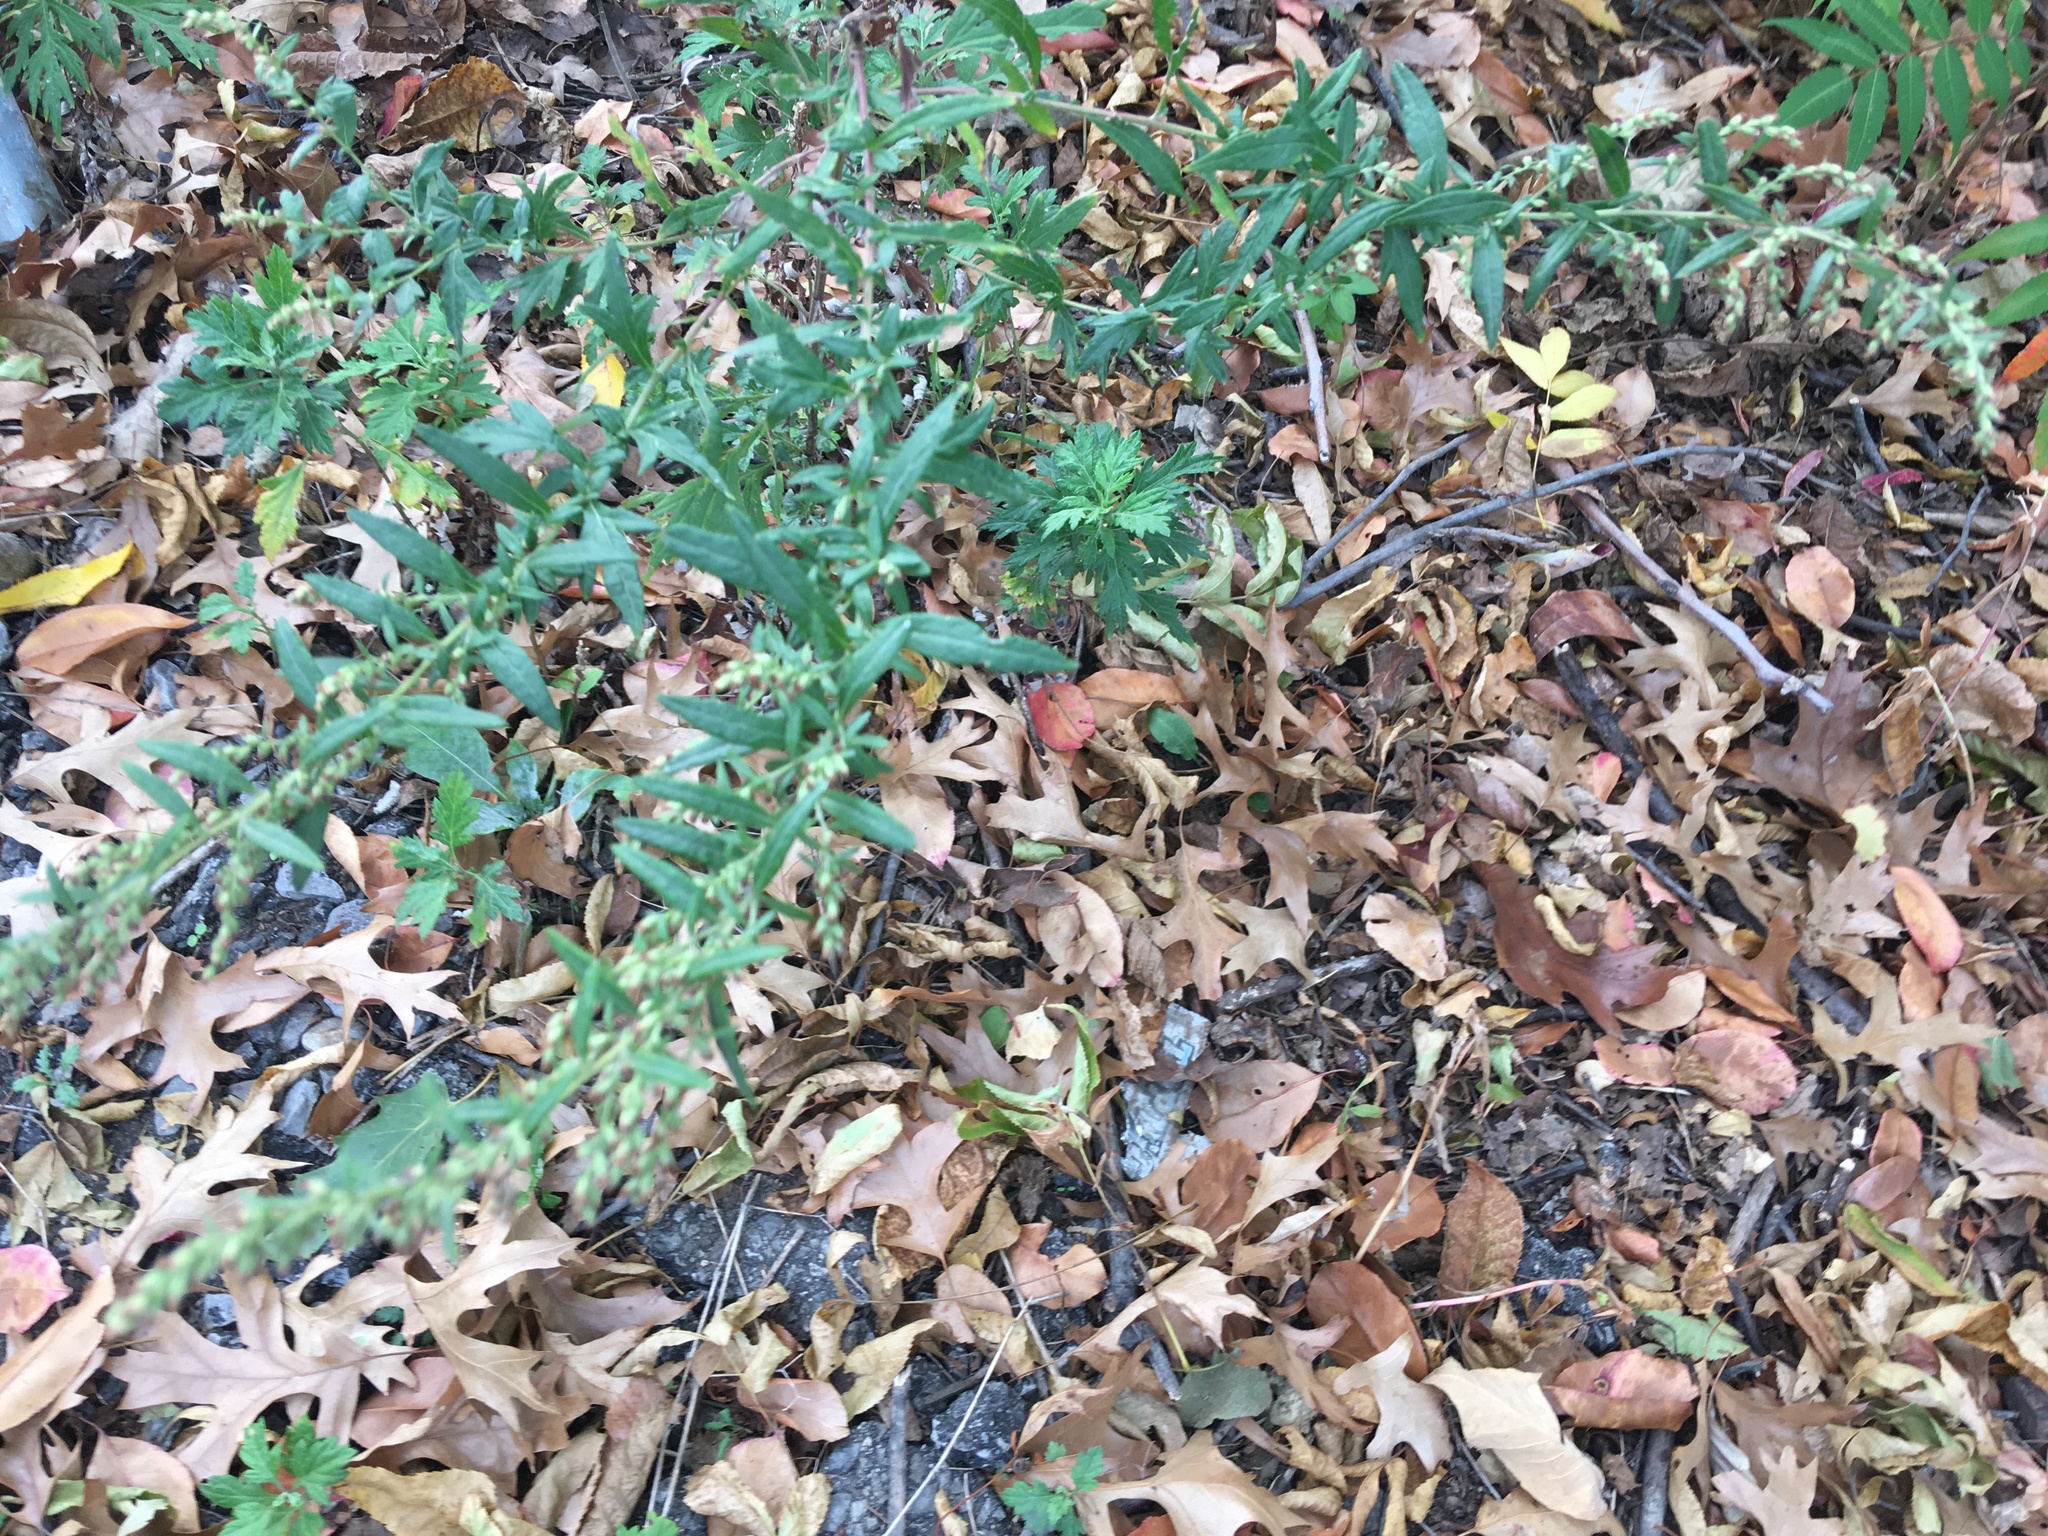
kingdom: Plantae
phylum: Tracheophyta
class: Magnoliopsida
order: Asterales
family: Asteraceae
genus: Artemisia
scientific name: Artemisia vulgaris
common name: Mugwort
